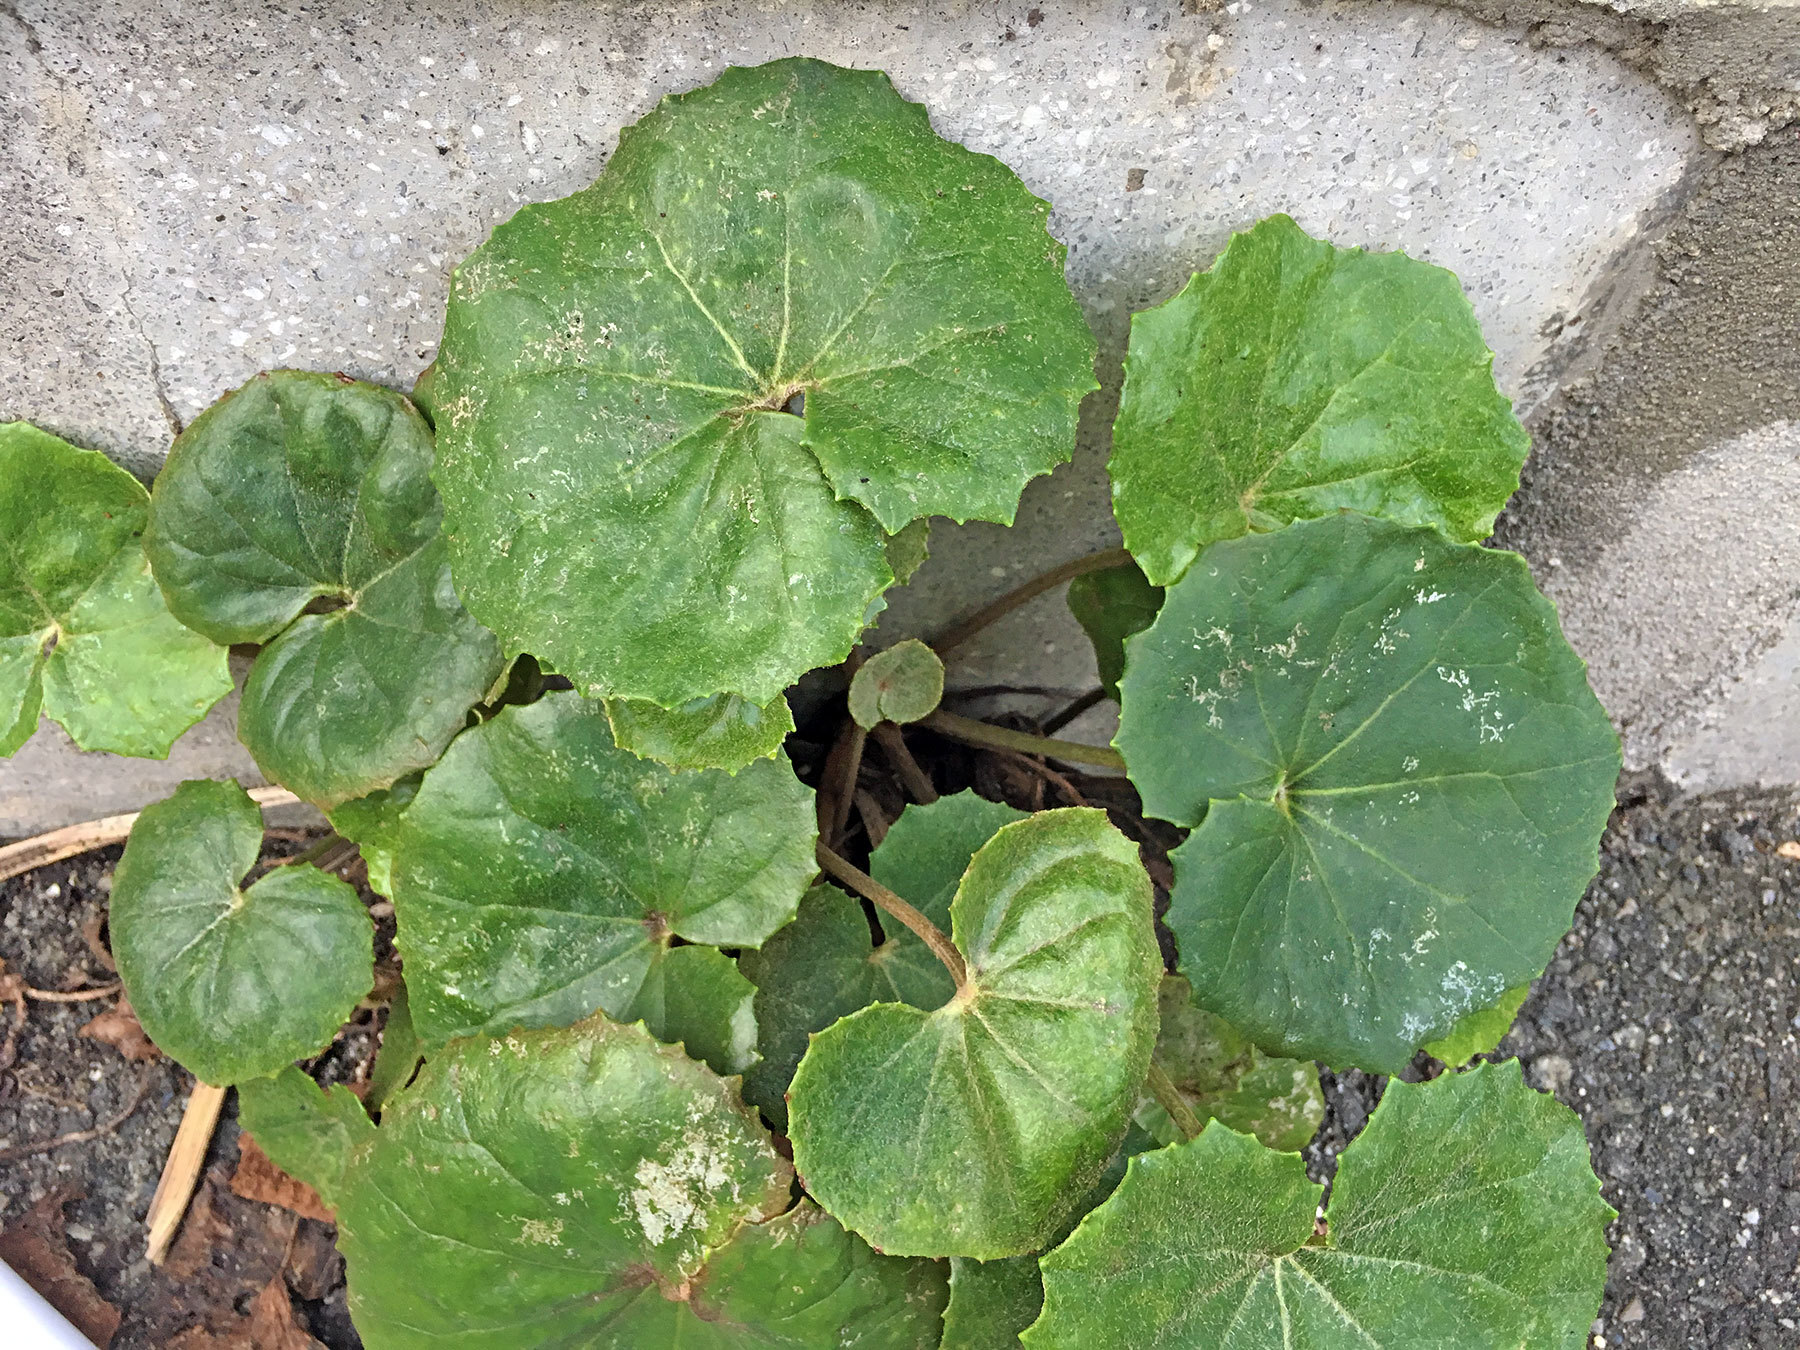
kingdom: Plantae
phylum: Tracheophyta
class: Magnoliopsida
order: Asterales
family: Asteraceae
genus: Farfugium
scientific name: Farfugium japonicum
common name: Leopardplant
